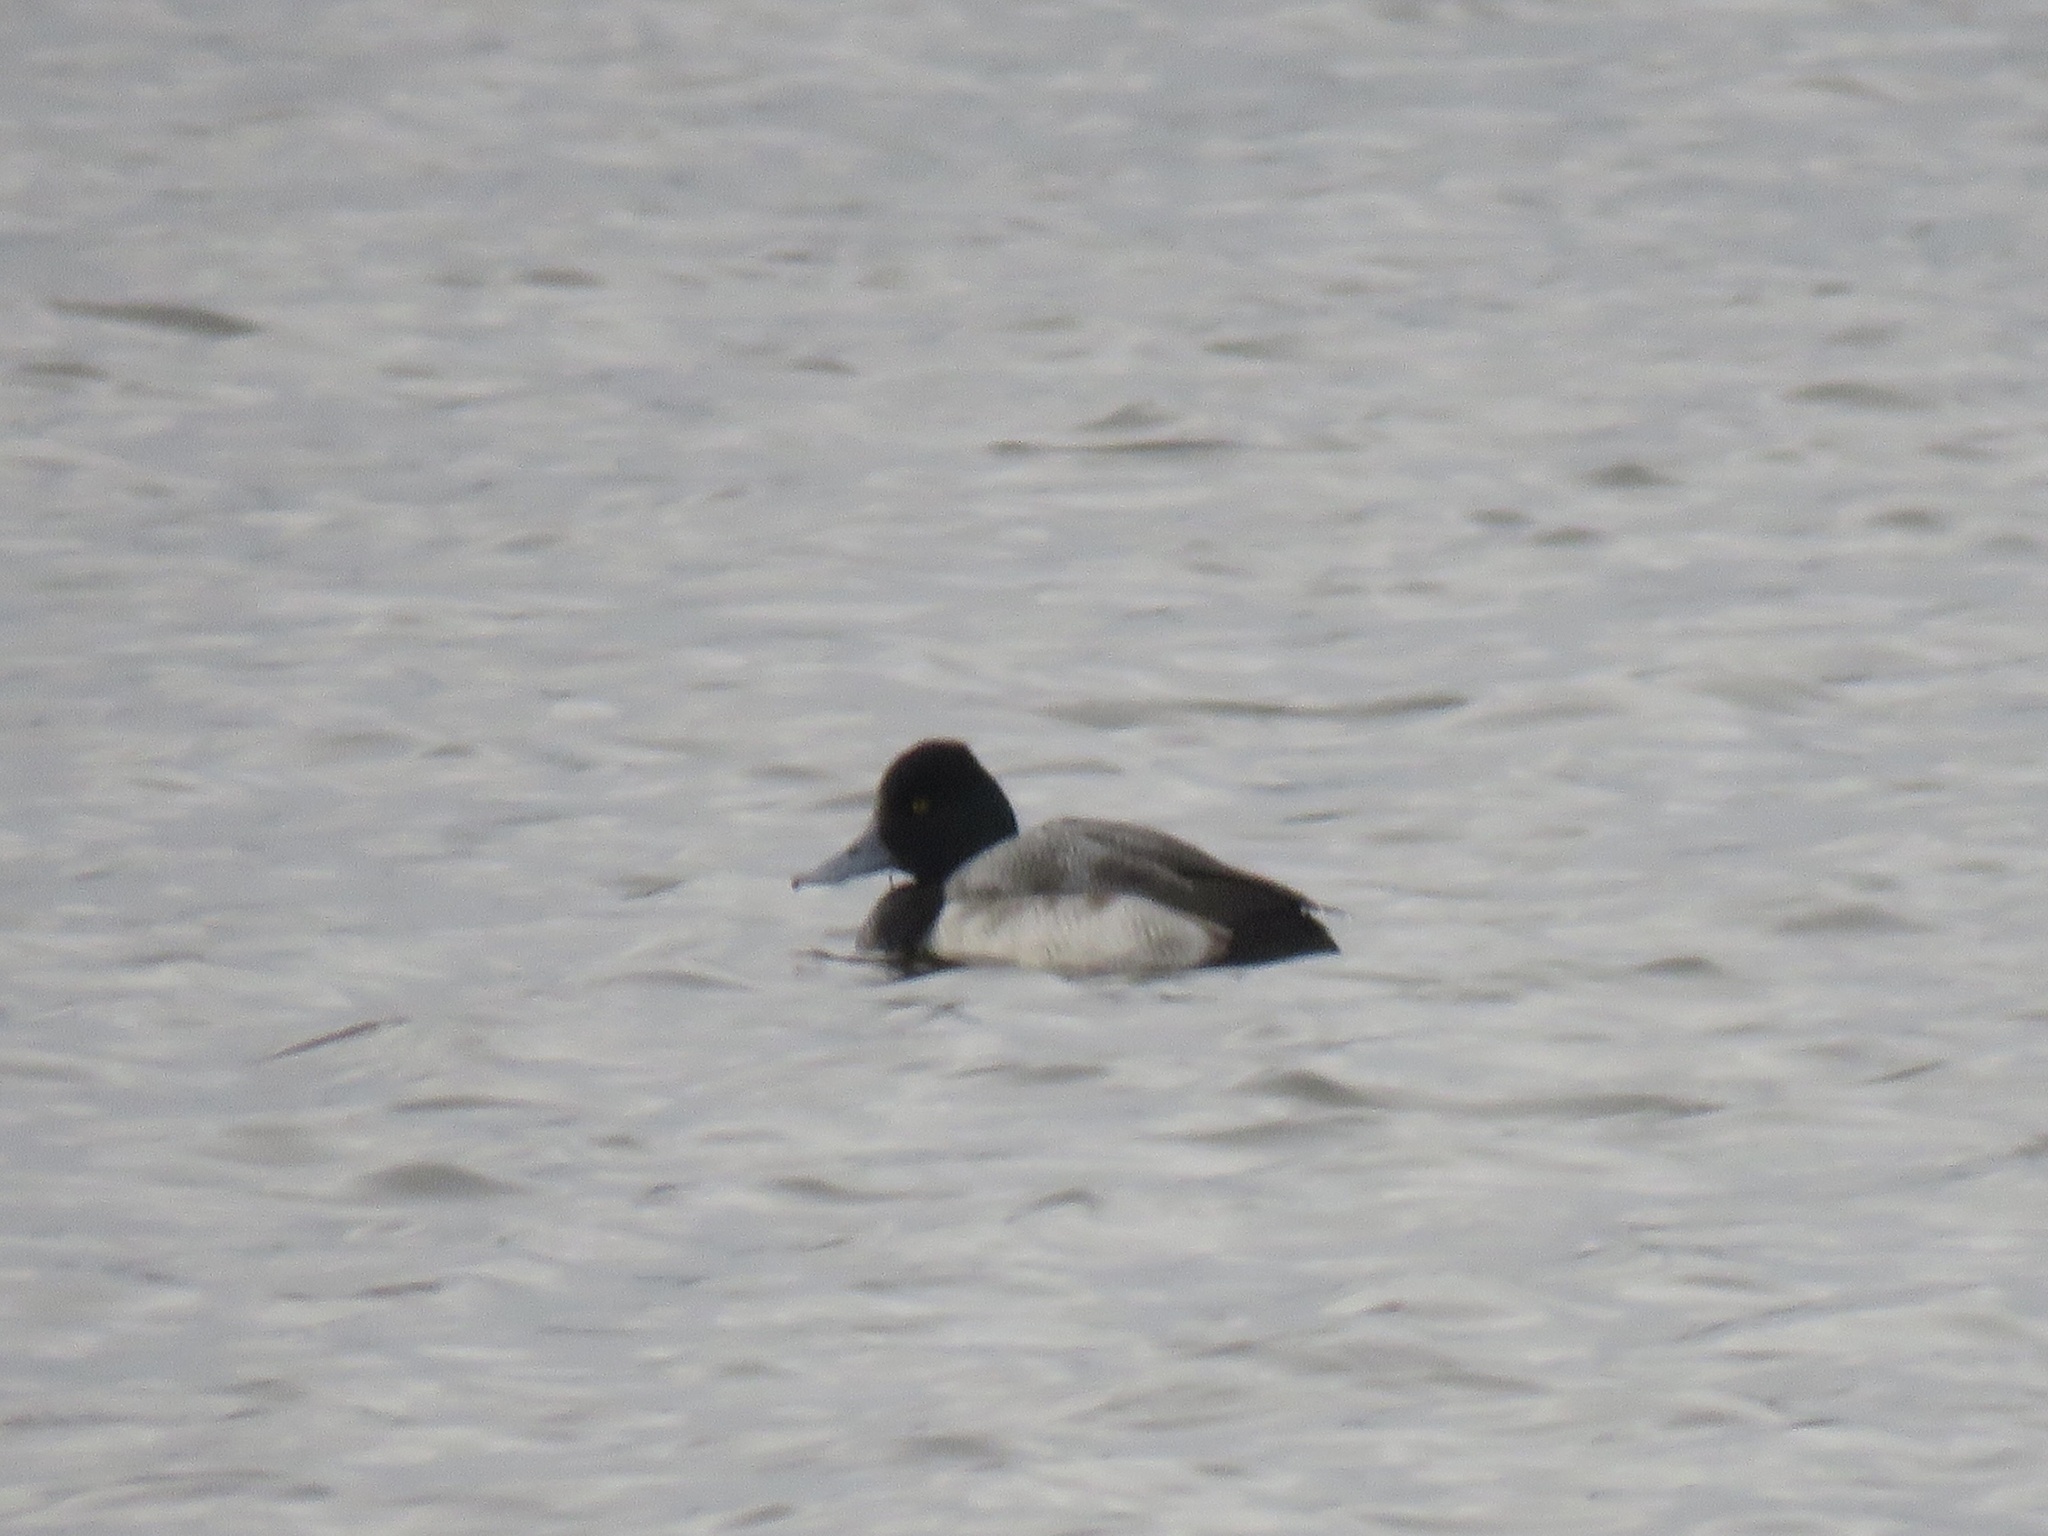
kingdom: Animalia
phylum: Chordata
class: Aves
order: Anseriformes
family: Anatidae
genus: Aythya
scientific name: Aythya affinis
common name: Lesser scaup
